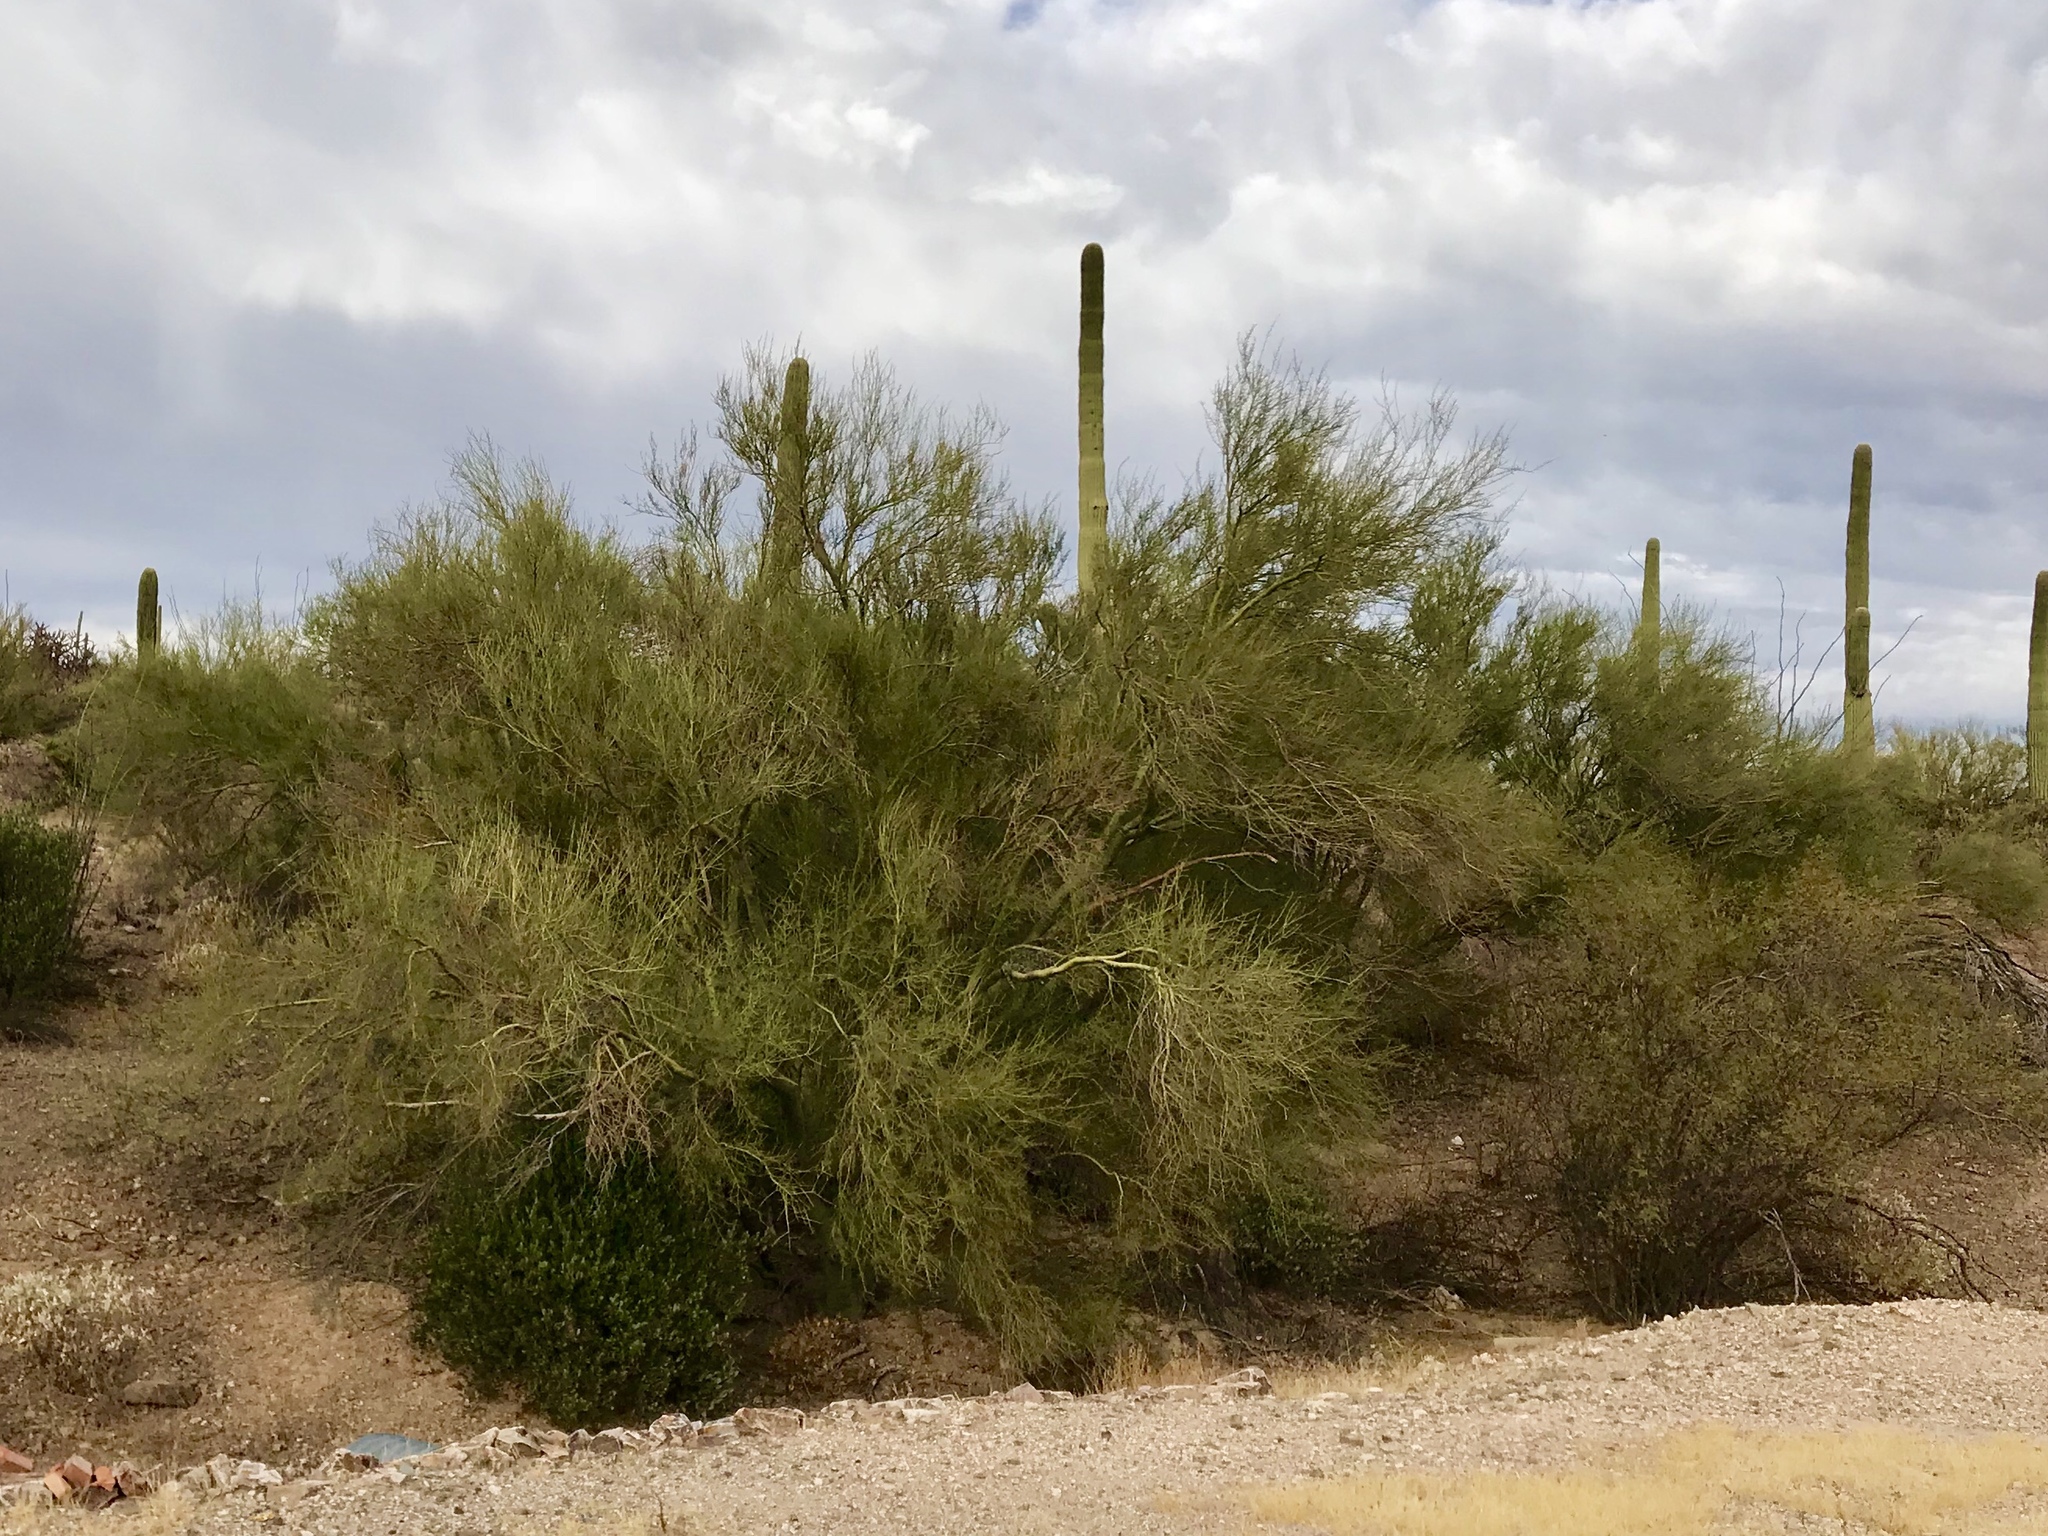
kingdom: Plantae
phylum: Tracheophyta
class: Magnoliopsida
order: Fabales
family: Fabaceae
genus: Parkinsonia
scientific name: Parkinsonia microphylla
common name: Yellow paloverde
